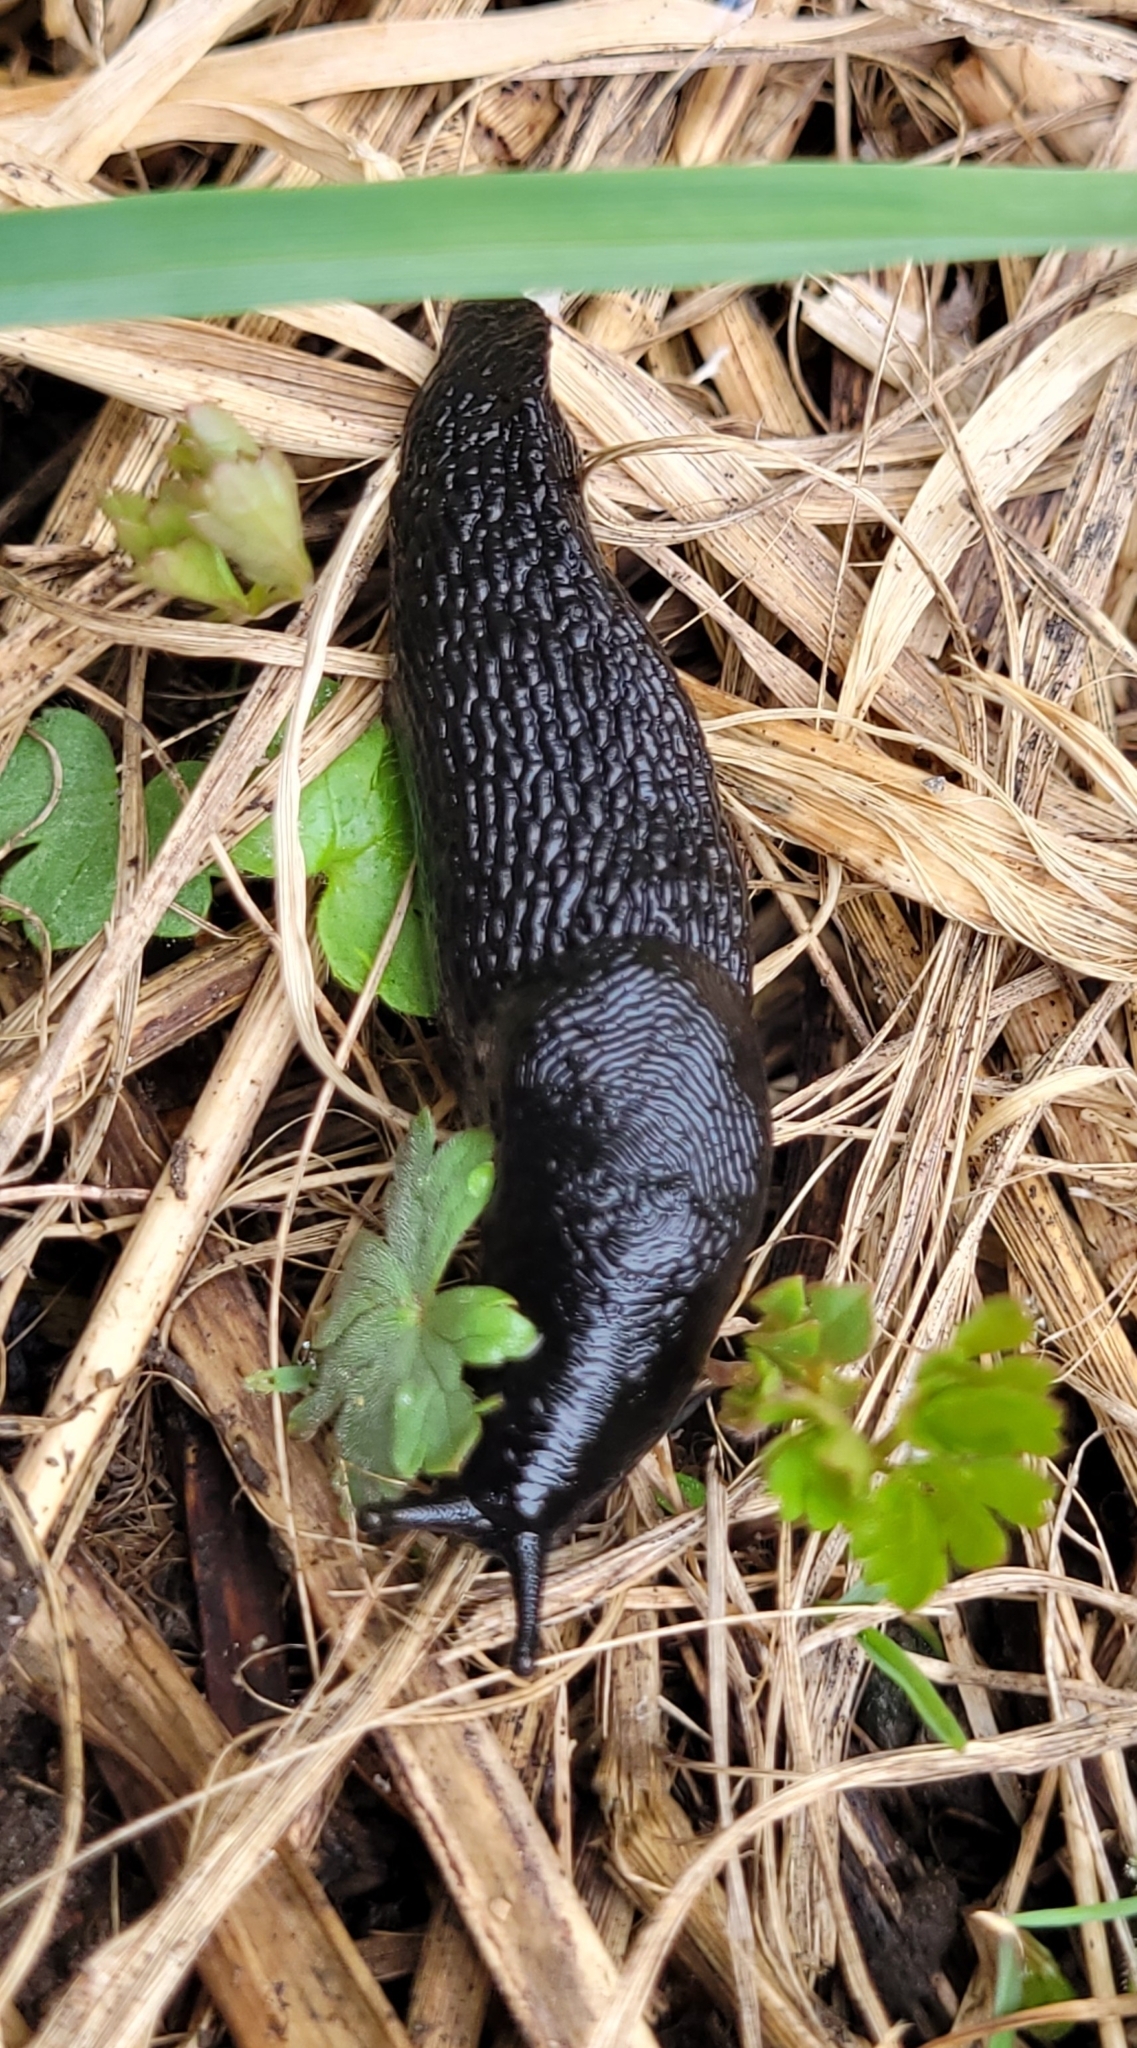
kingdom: Animalia
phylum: Mollusca
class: Gastropoda
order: Stylommatophora
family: Limacidae
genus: Turcomilax
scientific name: Turcomilax turkestanus
